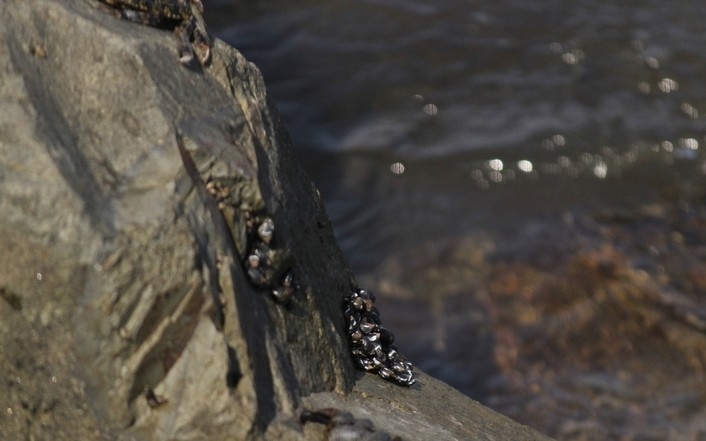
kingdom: Animalia
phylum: Mollusca
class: Gastropoda
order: Littorinimorpha
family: Littorinidae
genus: Echinolittorina
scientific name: Echinolittorina peruviana
